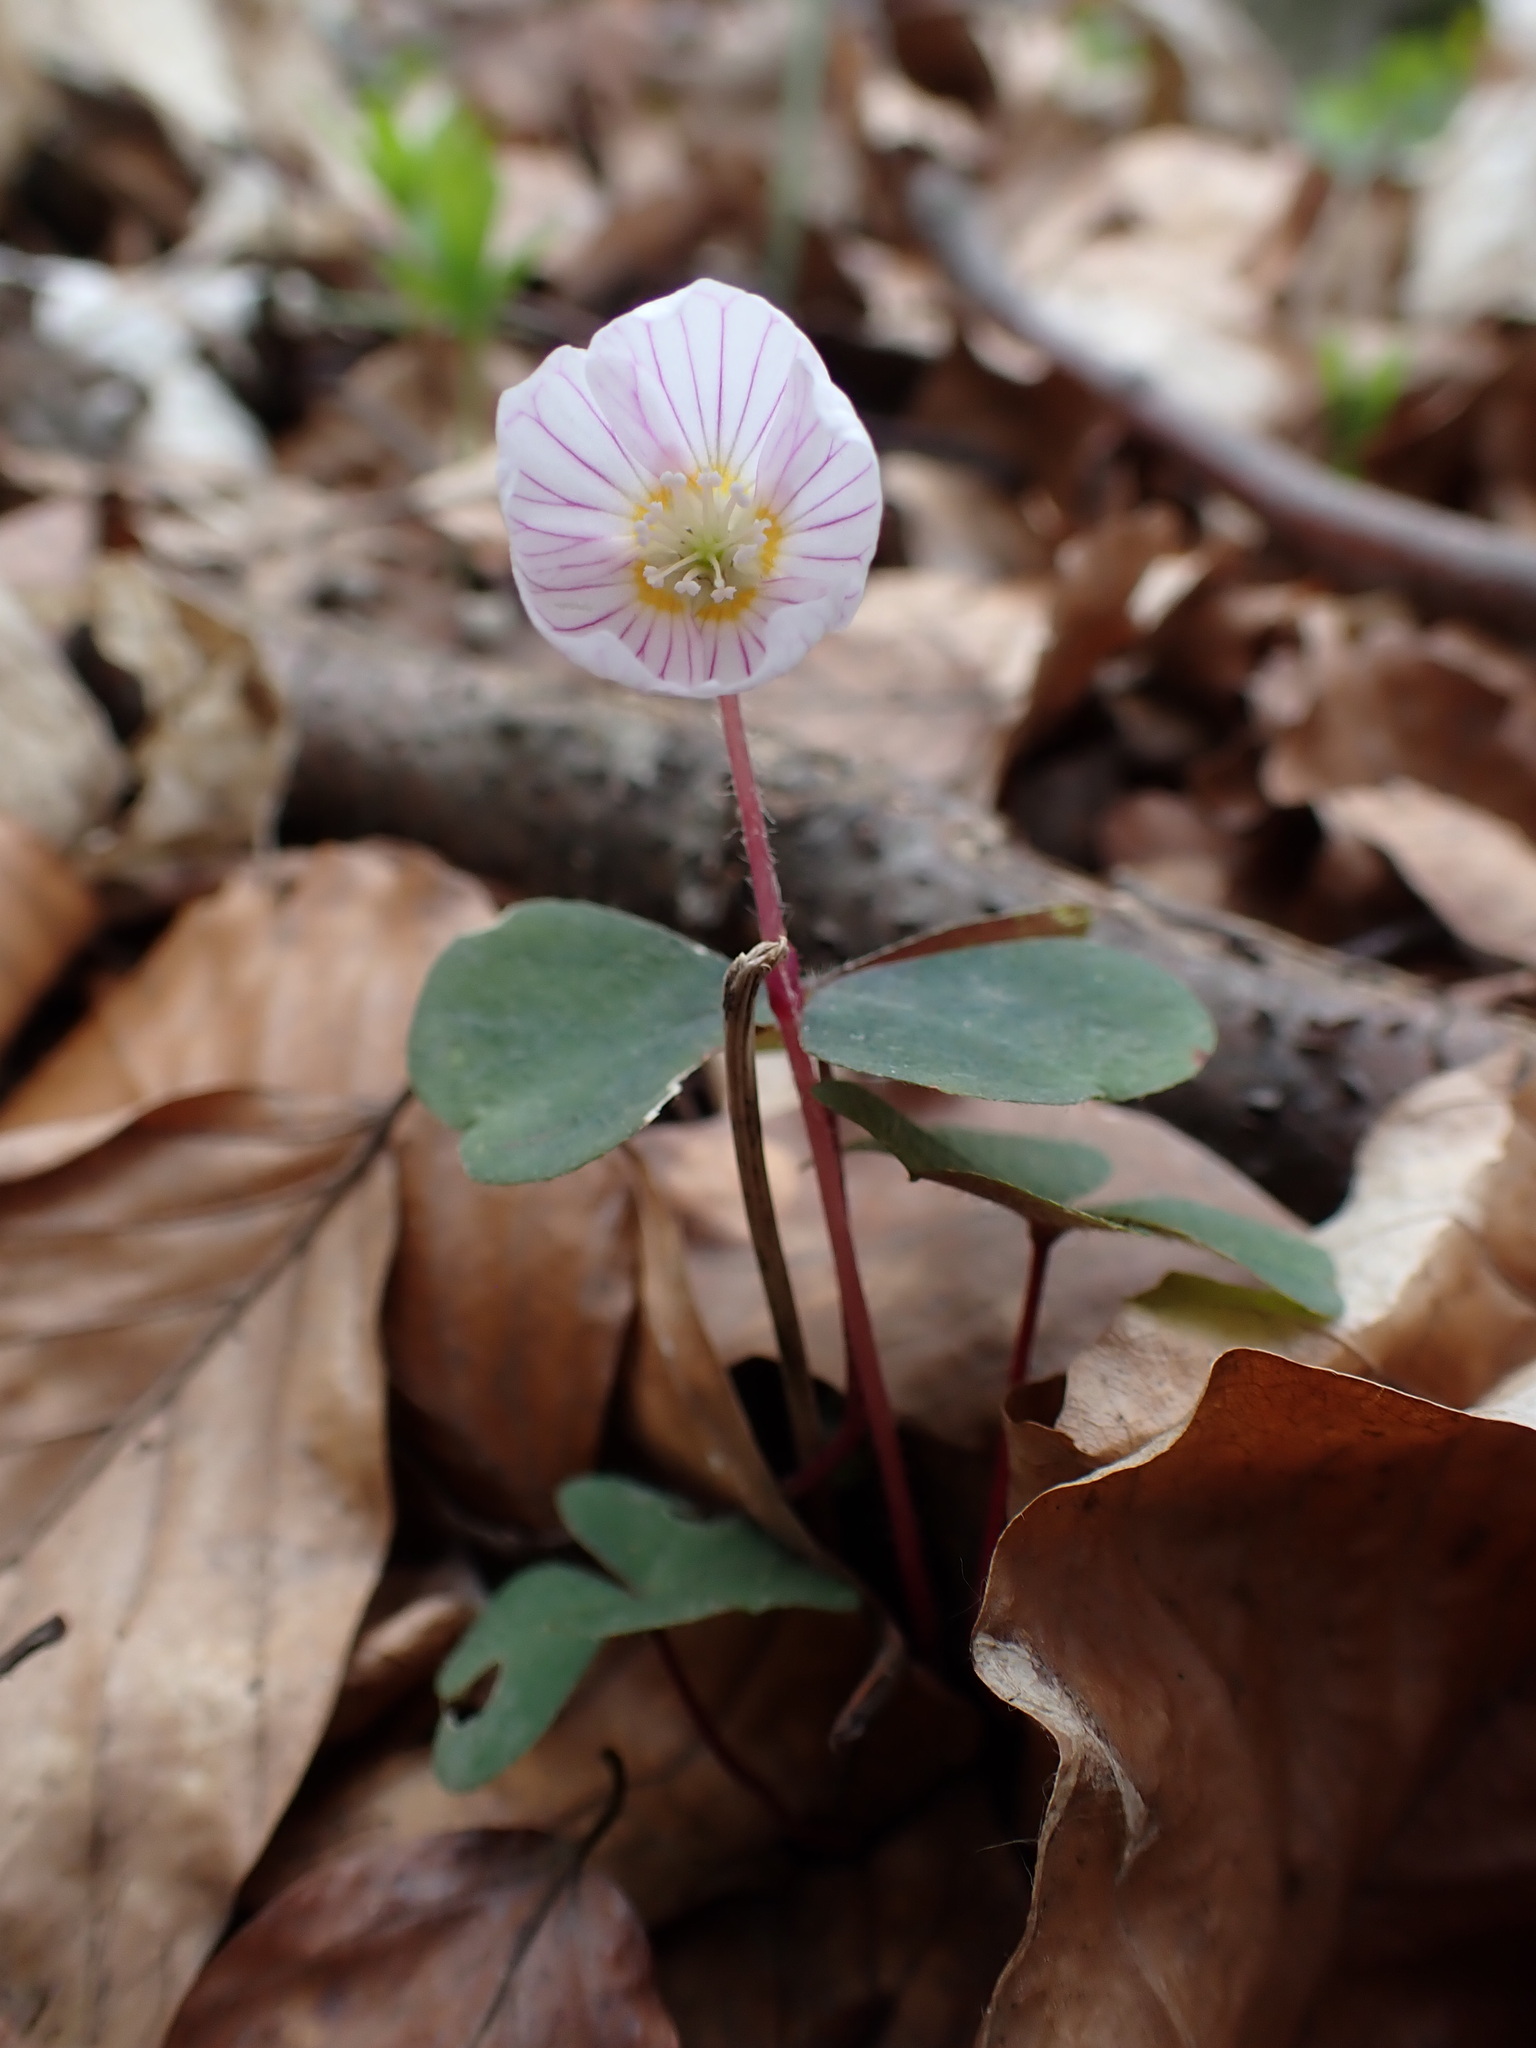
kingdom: Plantae
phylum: Tracheophyta
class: Magnoliopsida
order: Oxalidales
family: Oxalidaceae
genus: Oxalis
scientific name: Oxalis acetosella
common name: Wood-sorrel
